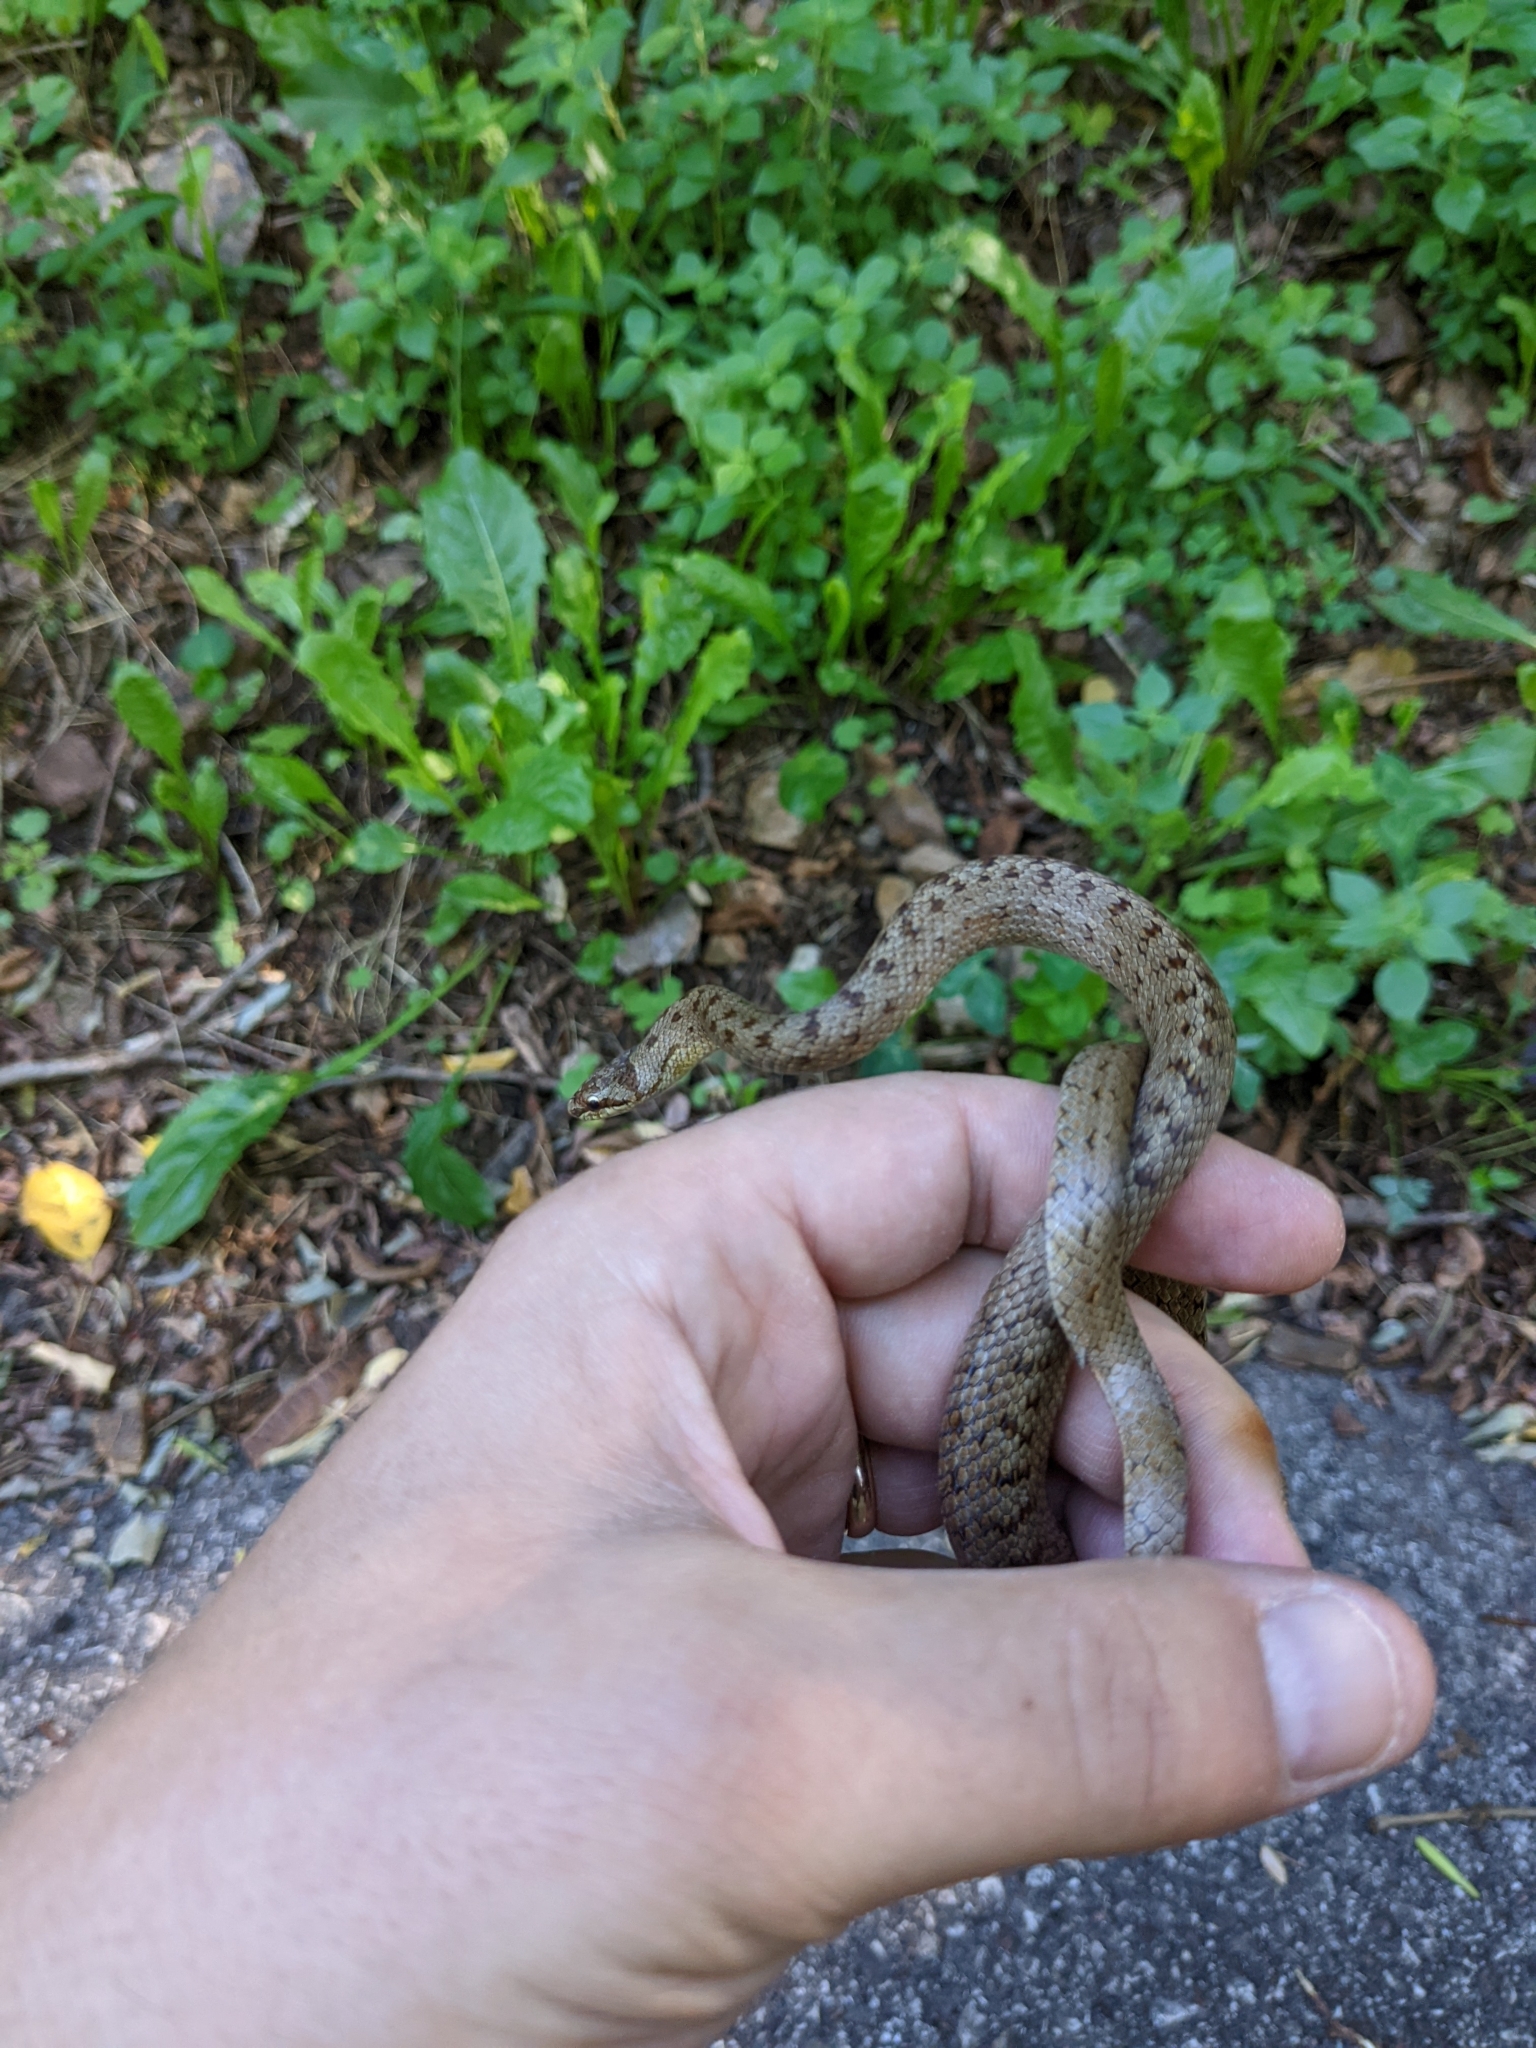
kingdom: Animalia
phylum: Chordata
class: Squamata
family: Colubridae
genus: Coronella
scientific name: Coronella austriaca
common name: Smooth snake
